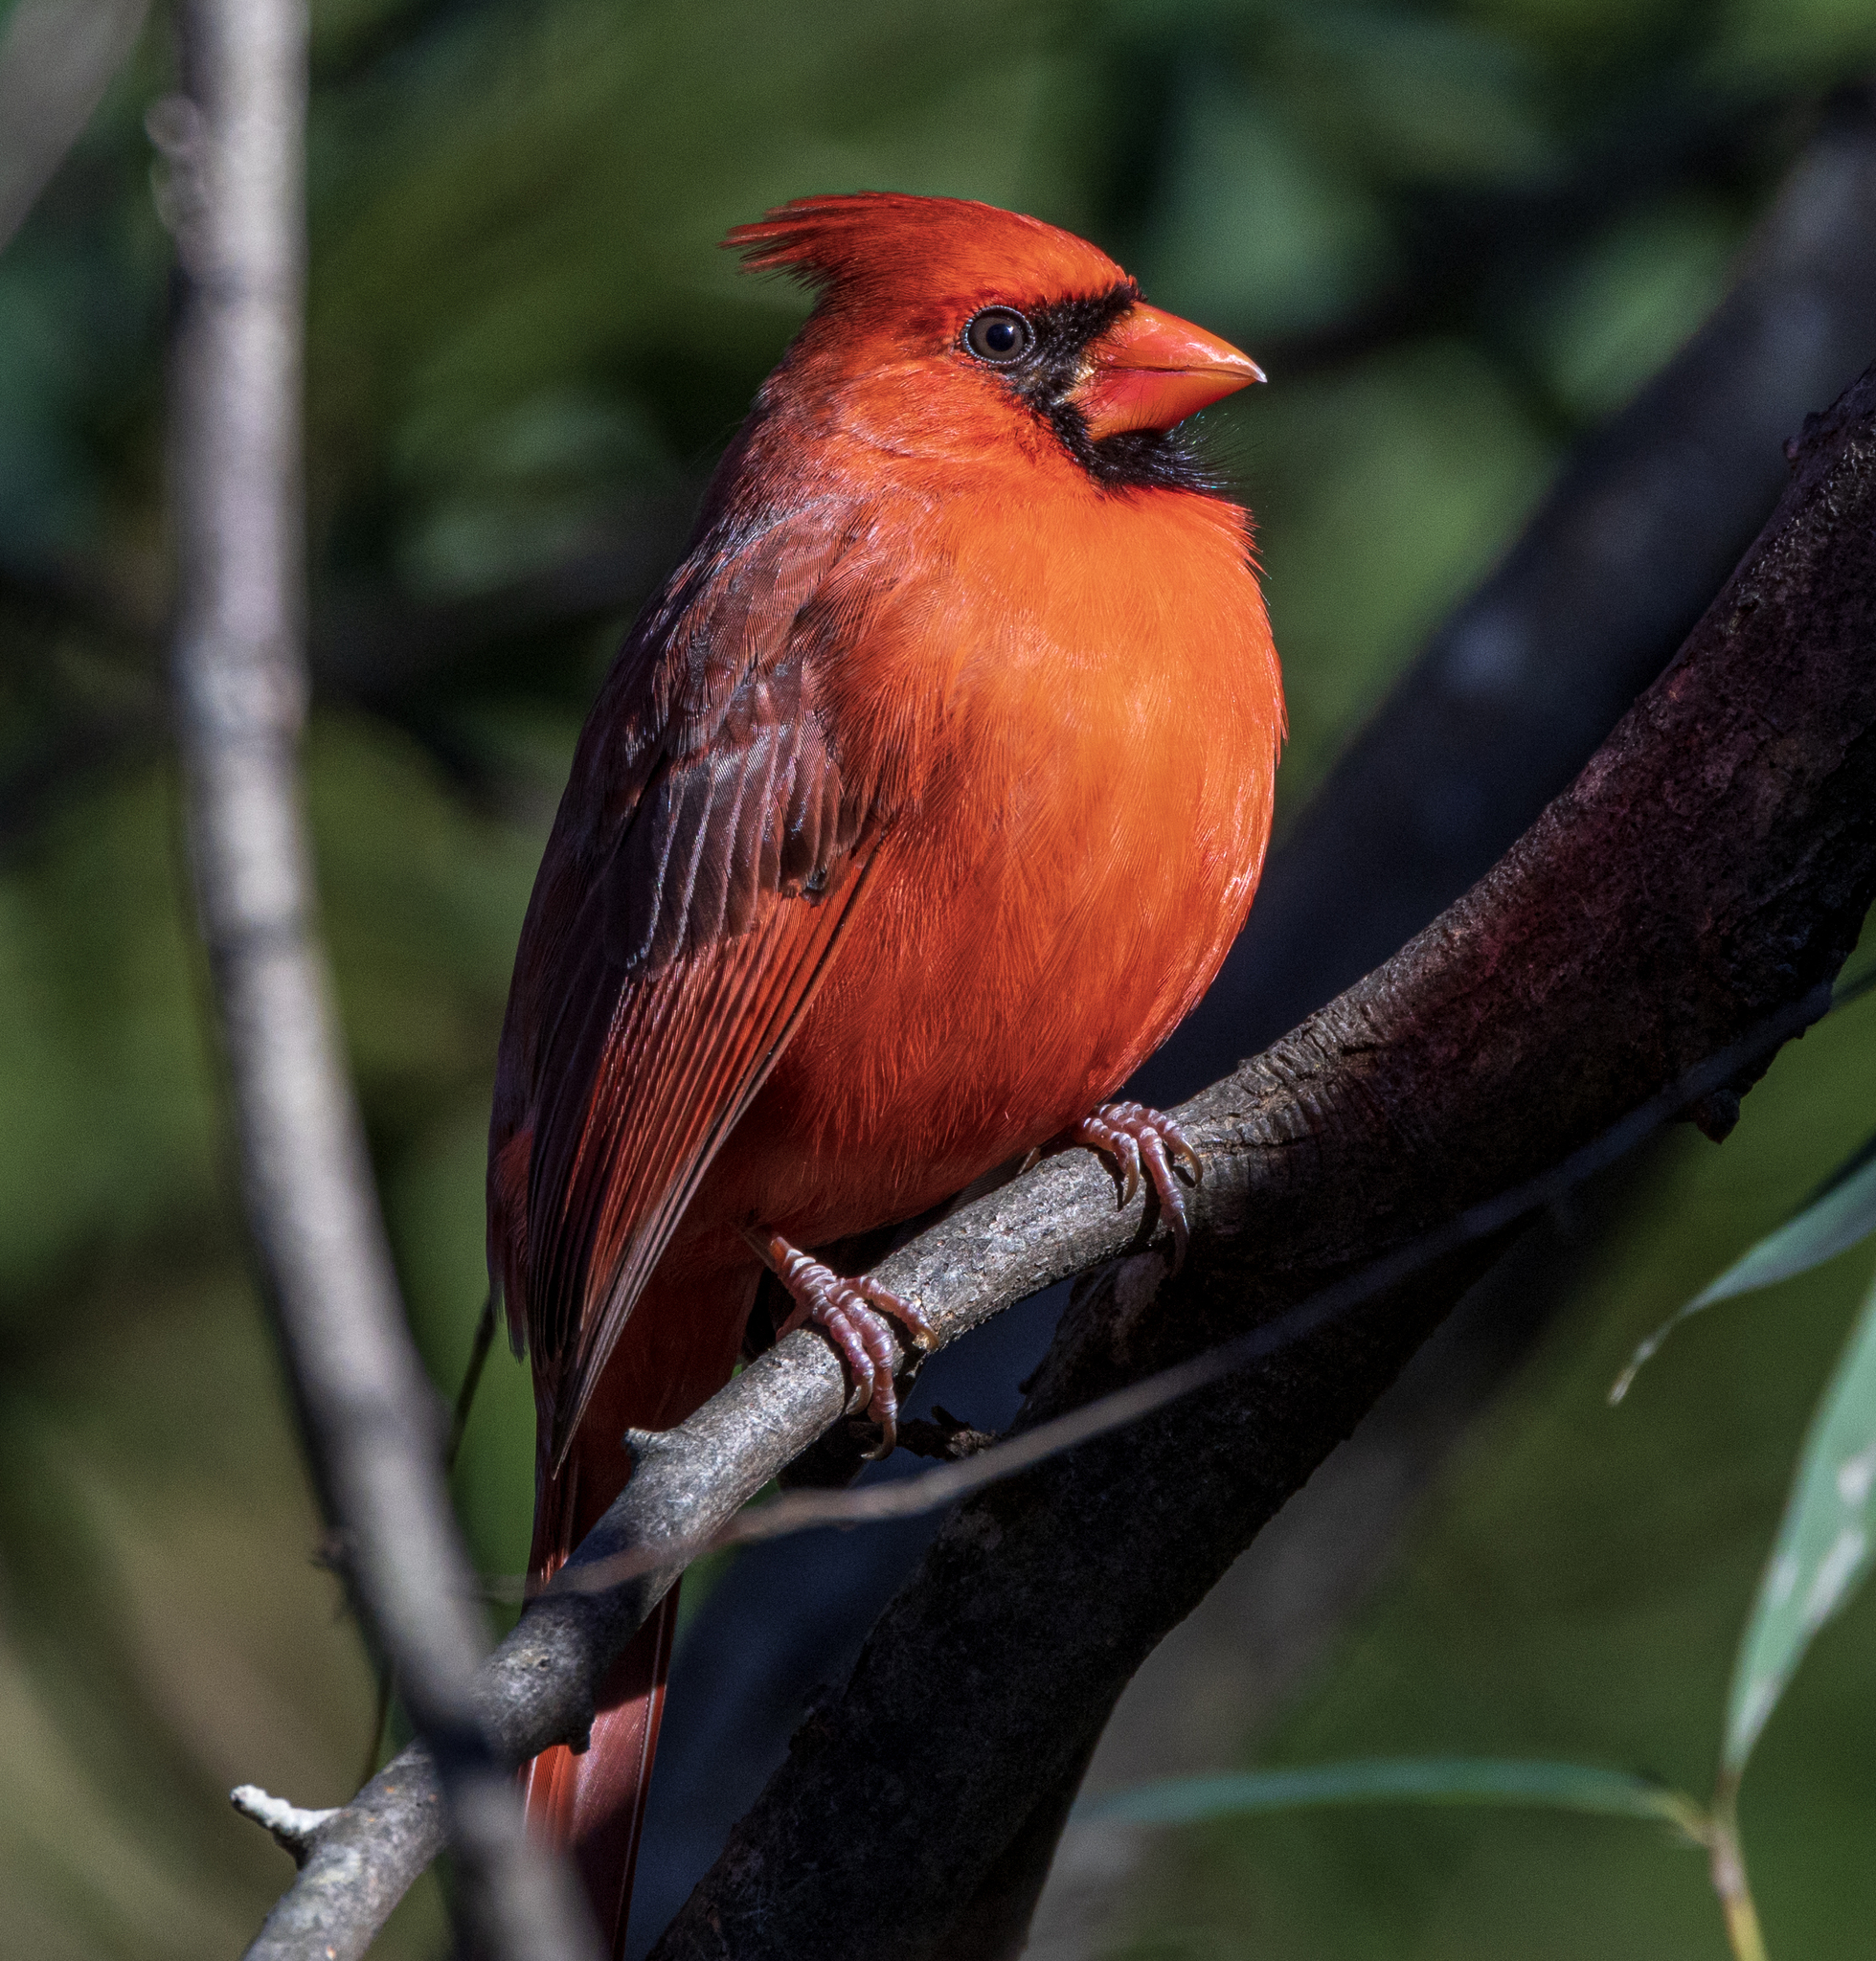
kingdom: Animalia
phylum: Chordata
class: Aves
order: Passeriformes
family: Cardinalidae
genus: Cardinalis
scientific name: Cardinalis cardinalis
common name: Northern cardinal
